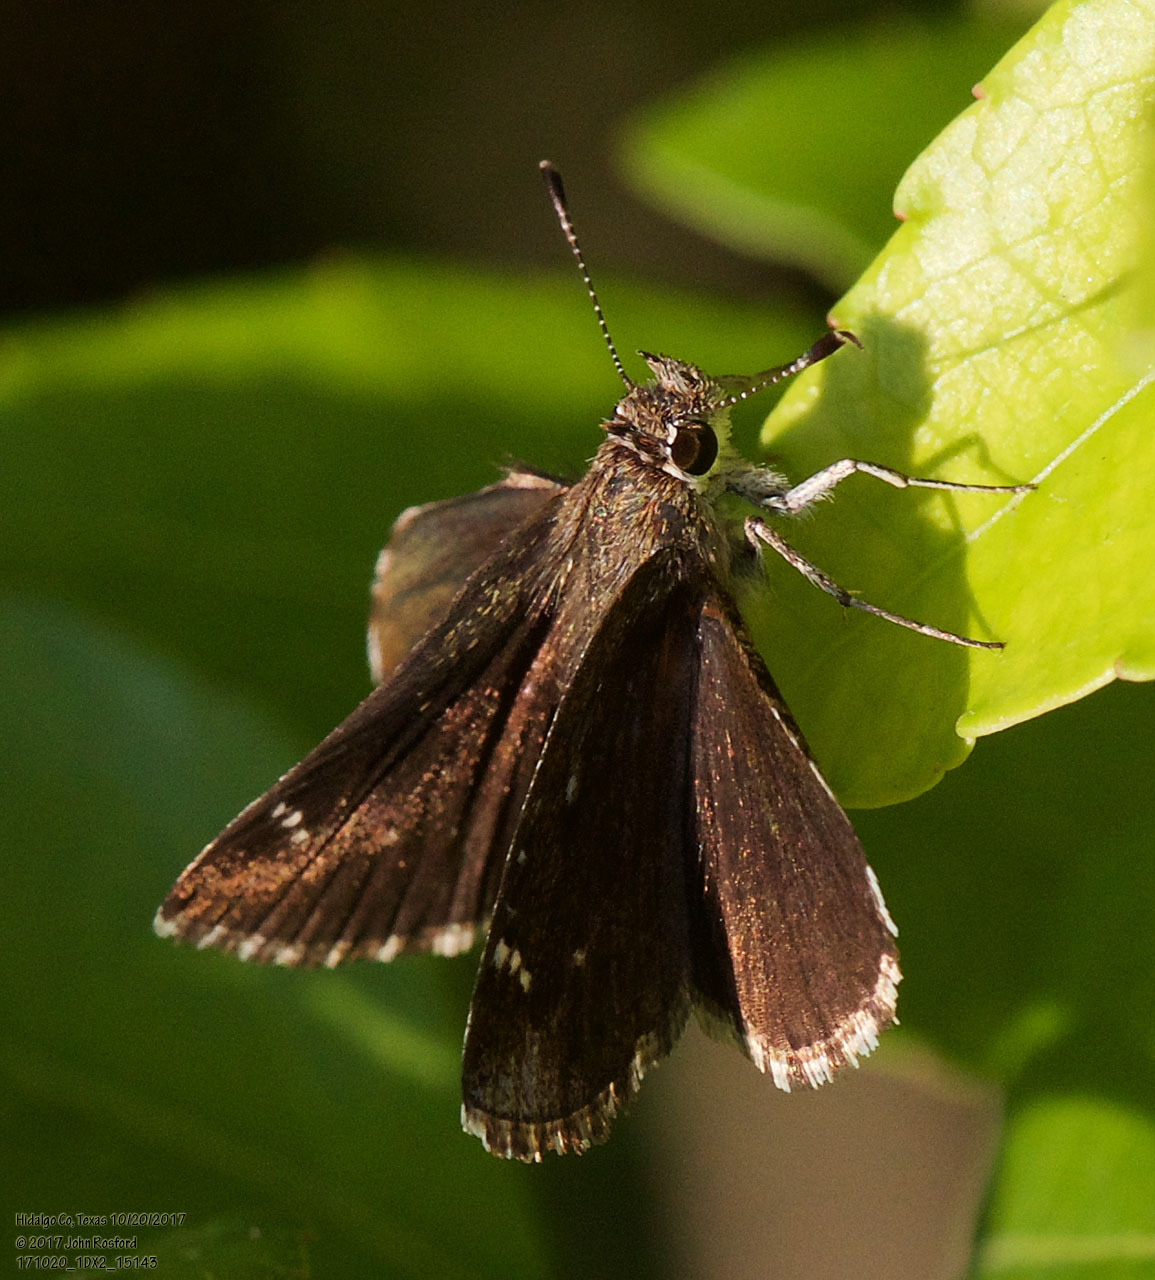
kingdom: Animalia
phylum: Arthropoda
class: Insecta
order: Lepidoptera
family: Hesperiidae
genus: Mastor
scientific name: Mastor nysa
